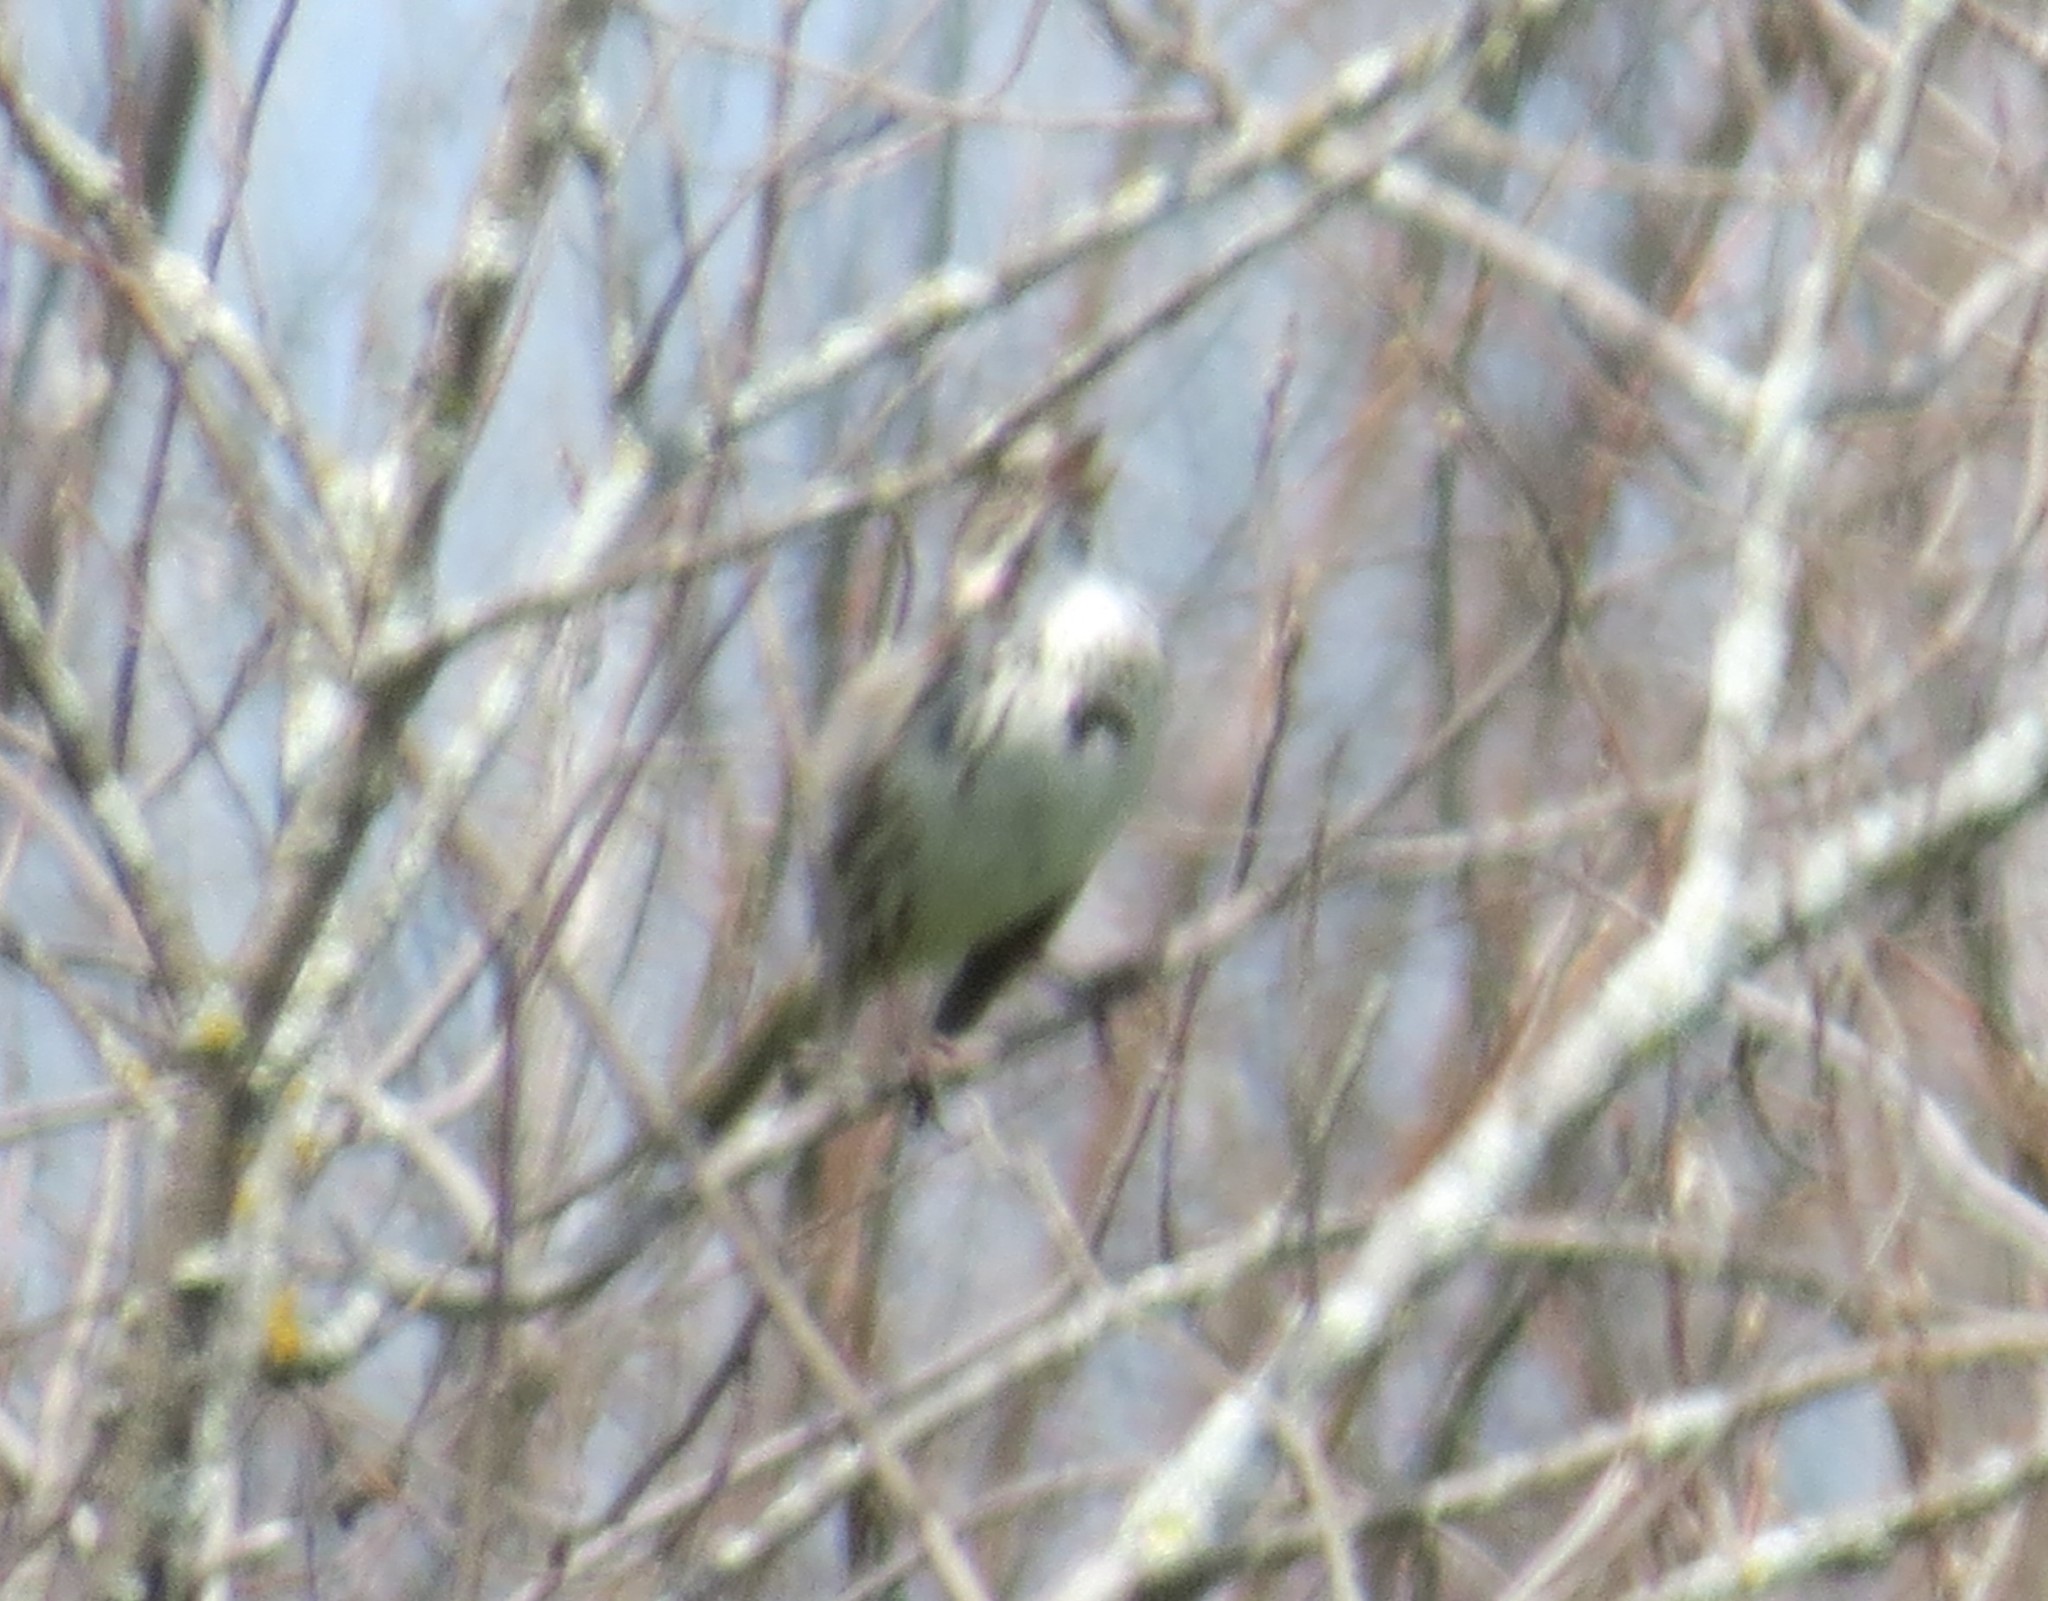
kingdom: Animalia
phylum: Chordata
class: Aves
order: Passeriformes
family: Passerellidae
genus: Melospiza
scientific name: Melospiza melodia
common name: Song sparrow
